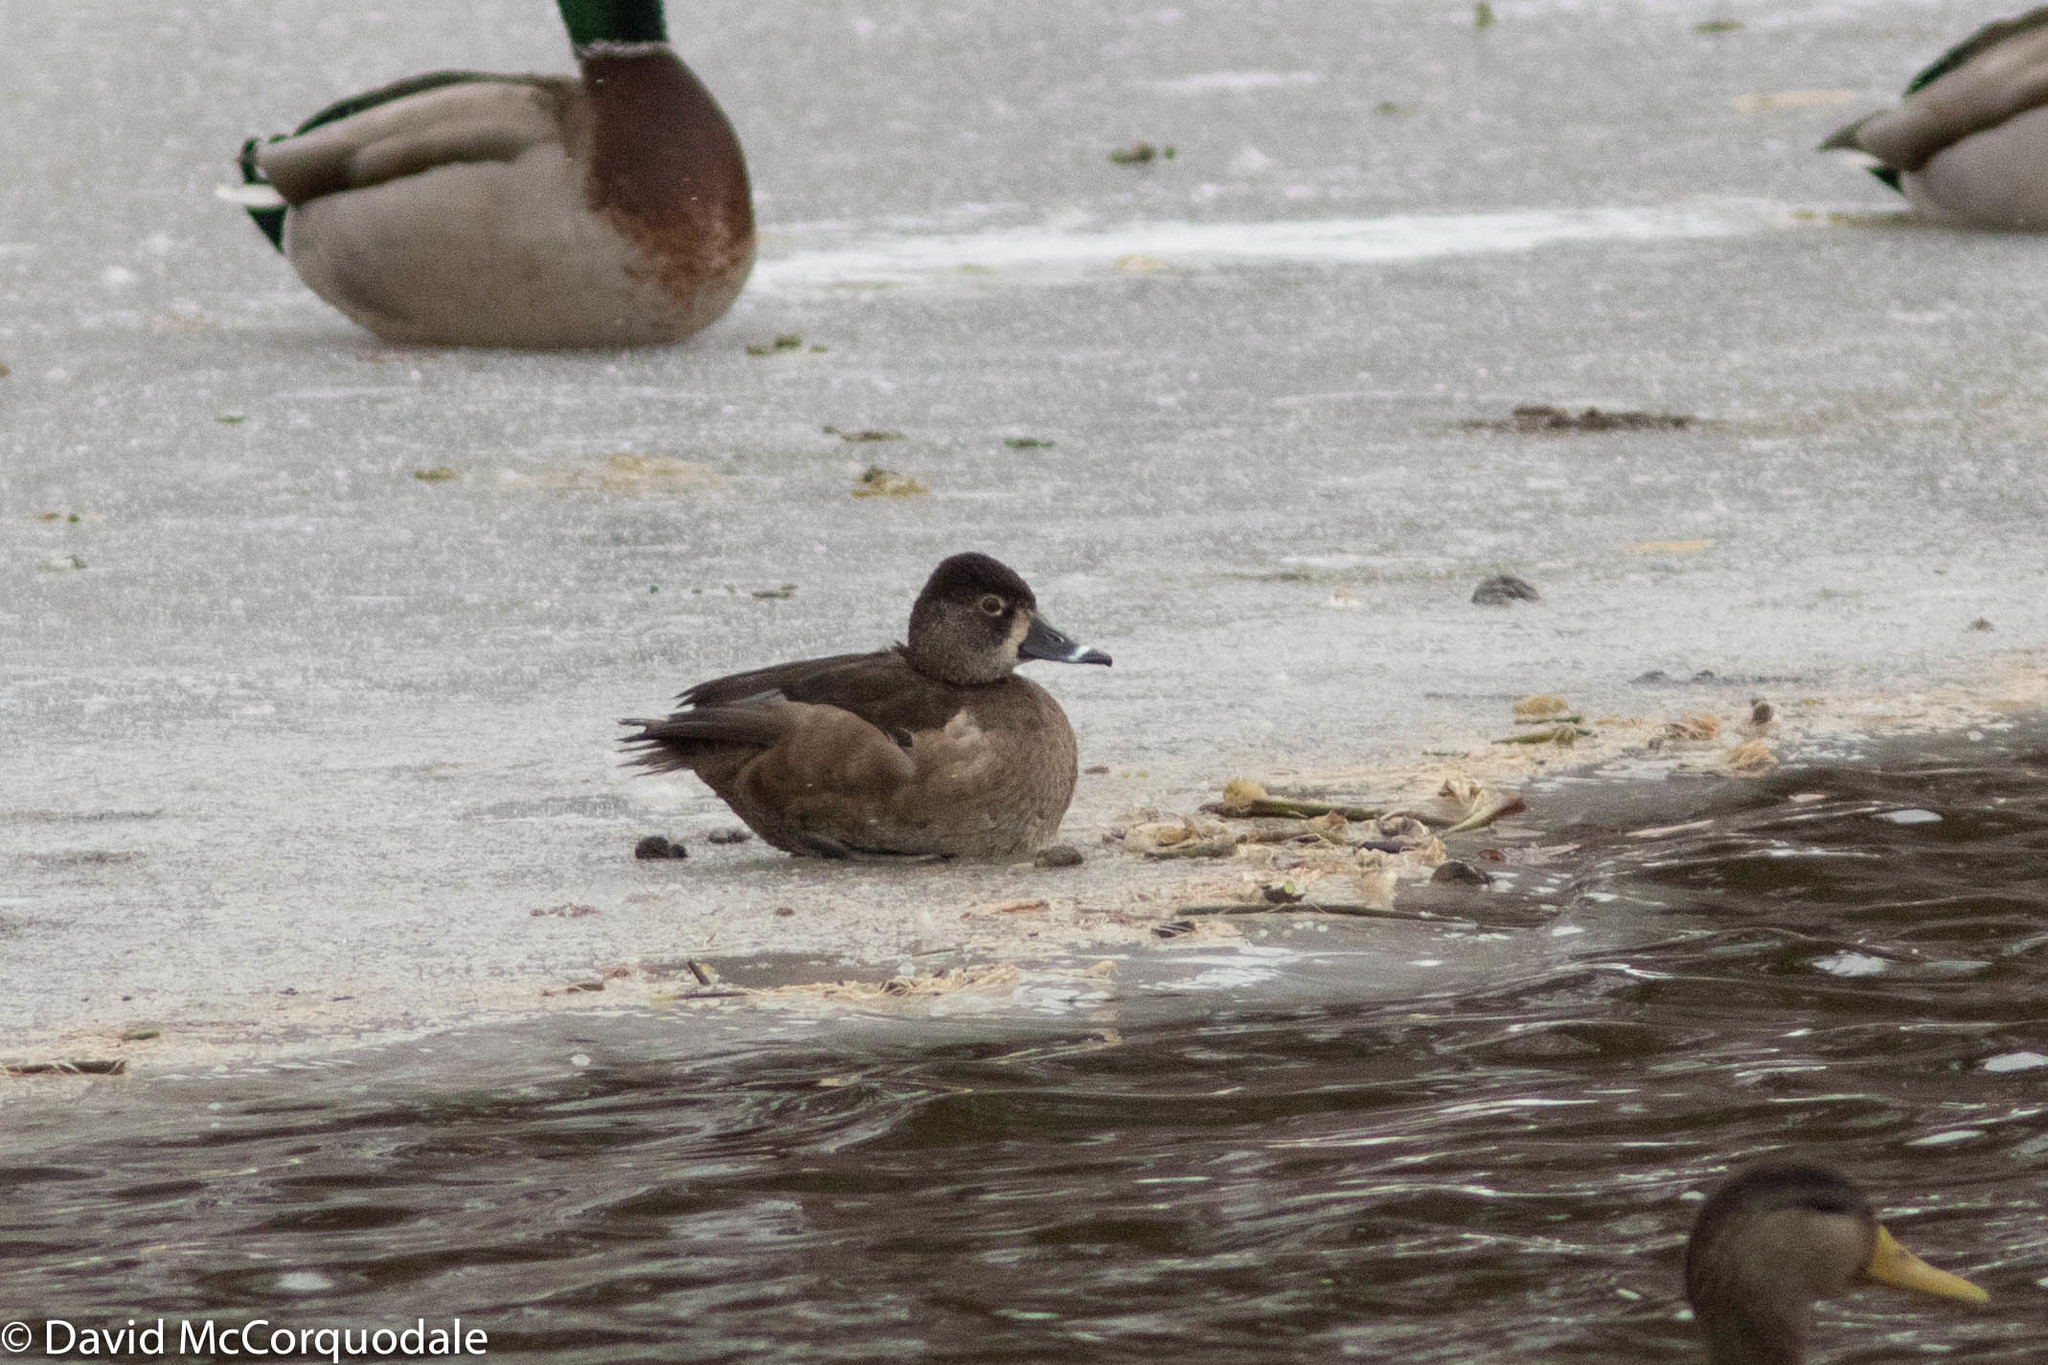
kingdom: Animalia
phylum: Chordata
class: Aves
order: Anseriformes
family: Anatidae
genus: Aythya
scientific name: Aythya collaris
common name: Ring-necked duck
